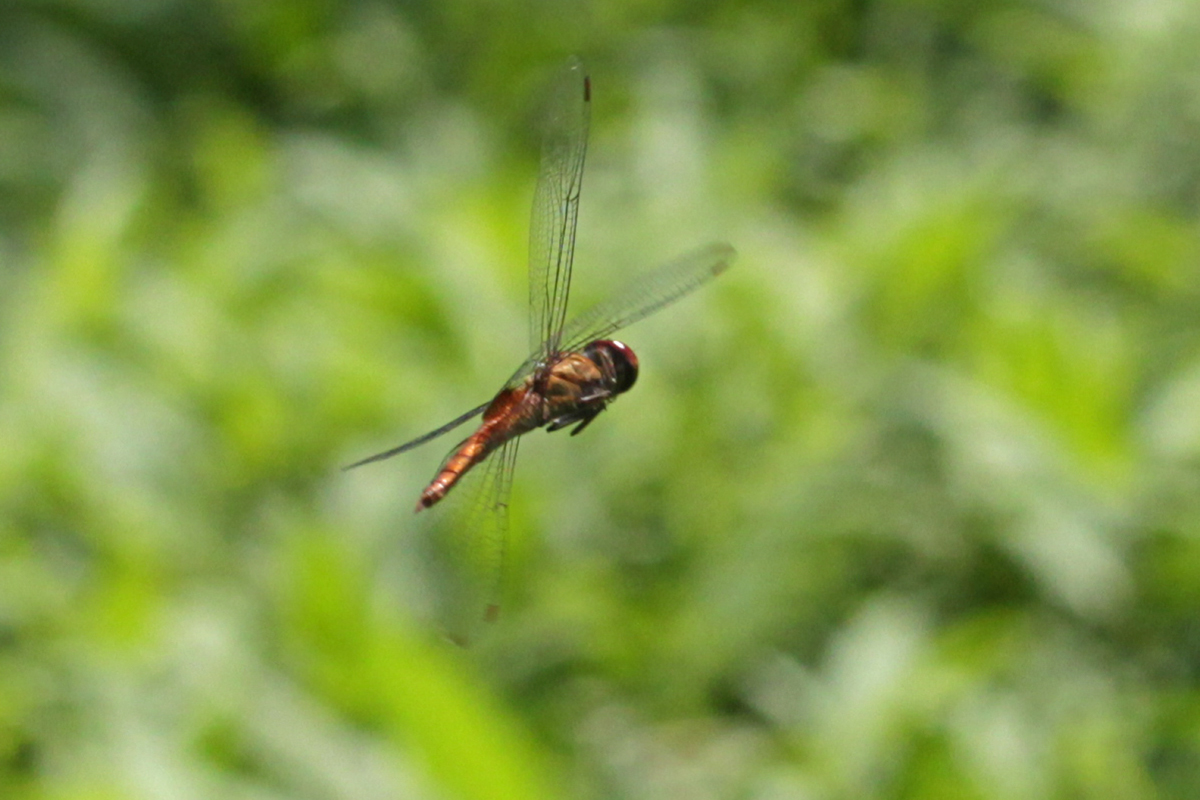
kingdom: Animalia
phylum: Arthropoda
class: Insecta
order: Odonata
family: Libellulidae
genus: Pantala
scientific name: Pantala hymenaea
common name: Spot-winged glider
